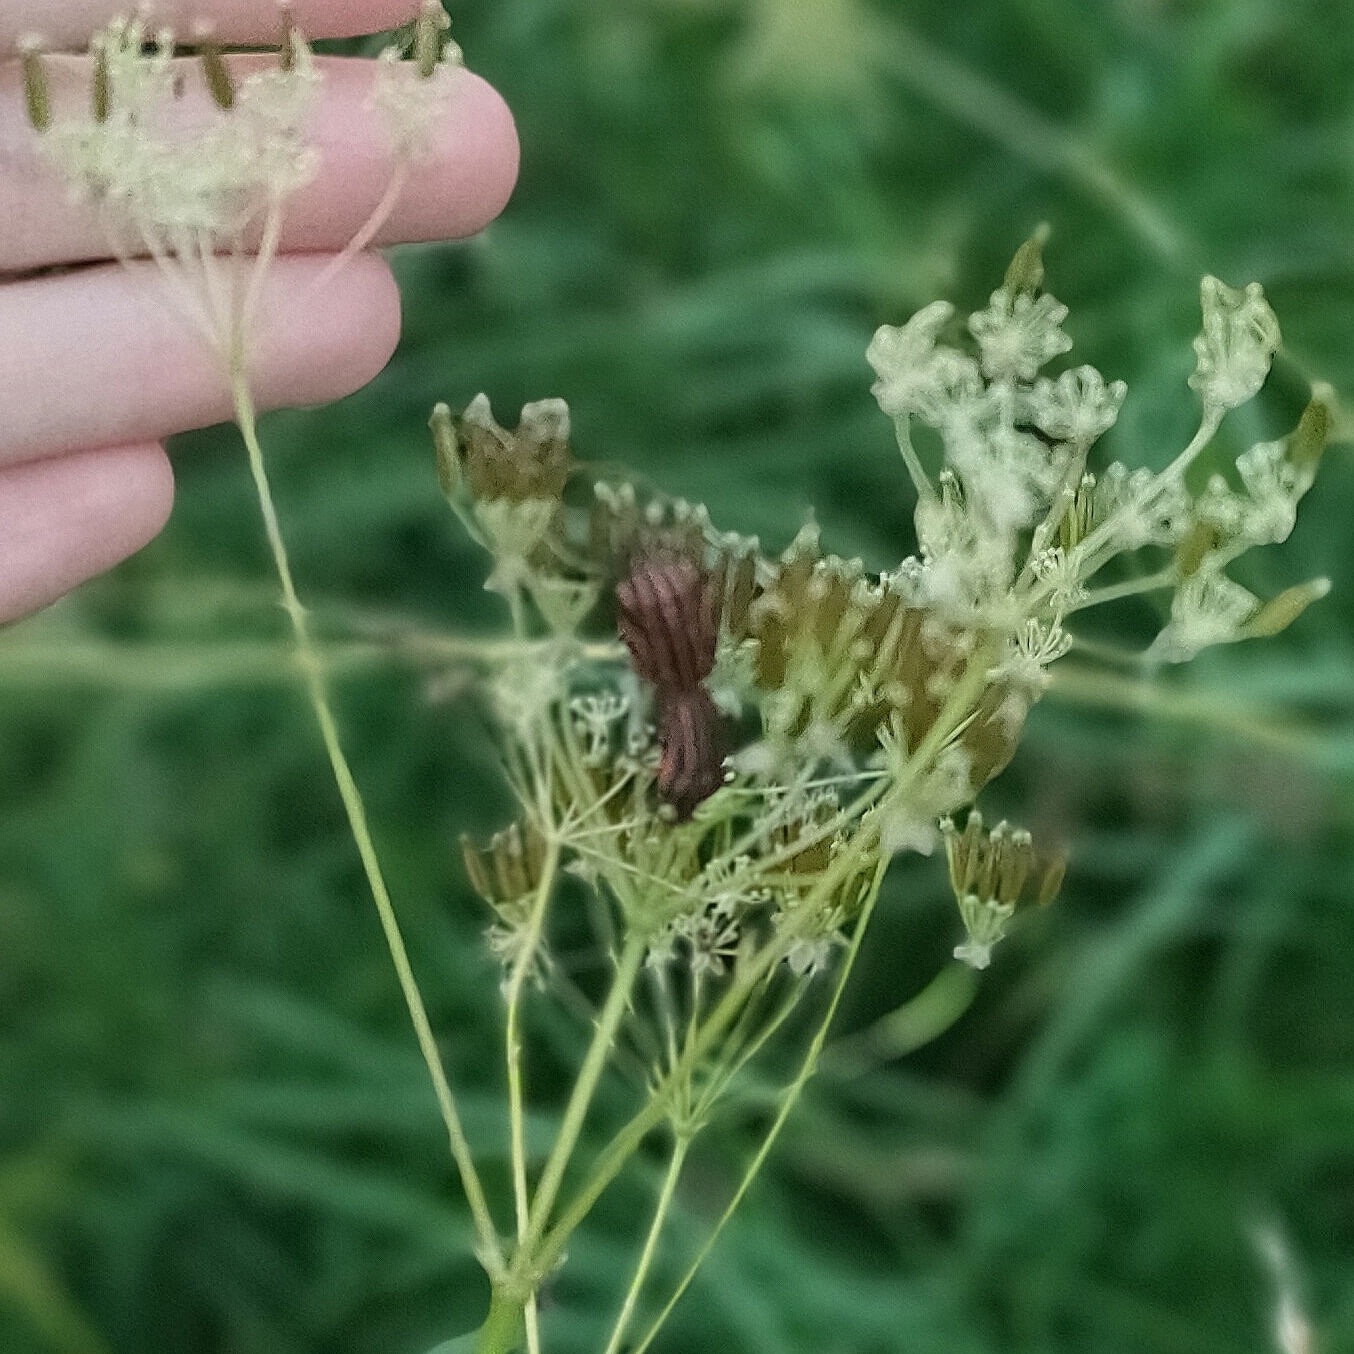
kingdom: Animalia
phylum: Arthropoda
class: Insecta
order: Hemiptera
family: Pentatomidae
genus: Graphosoma
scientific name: Graphosoma italicum
